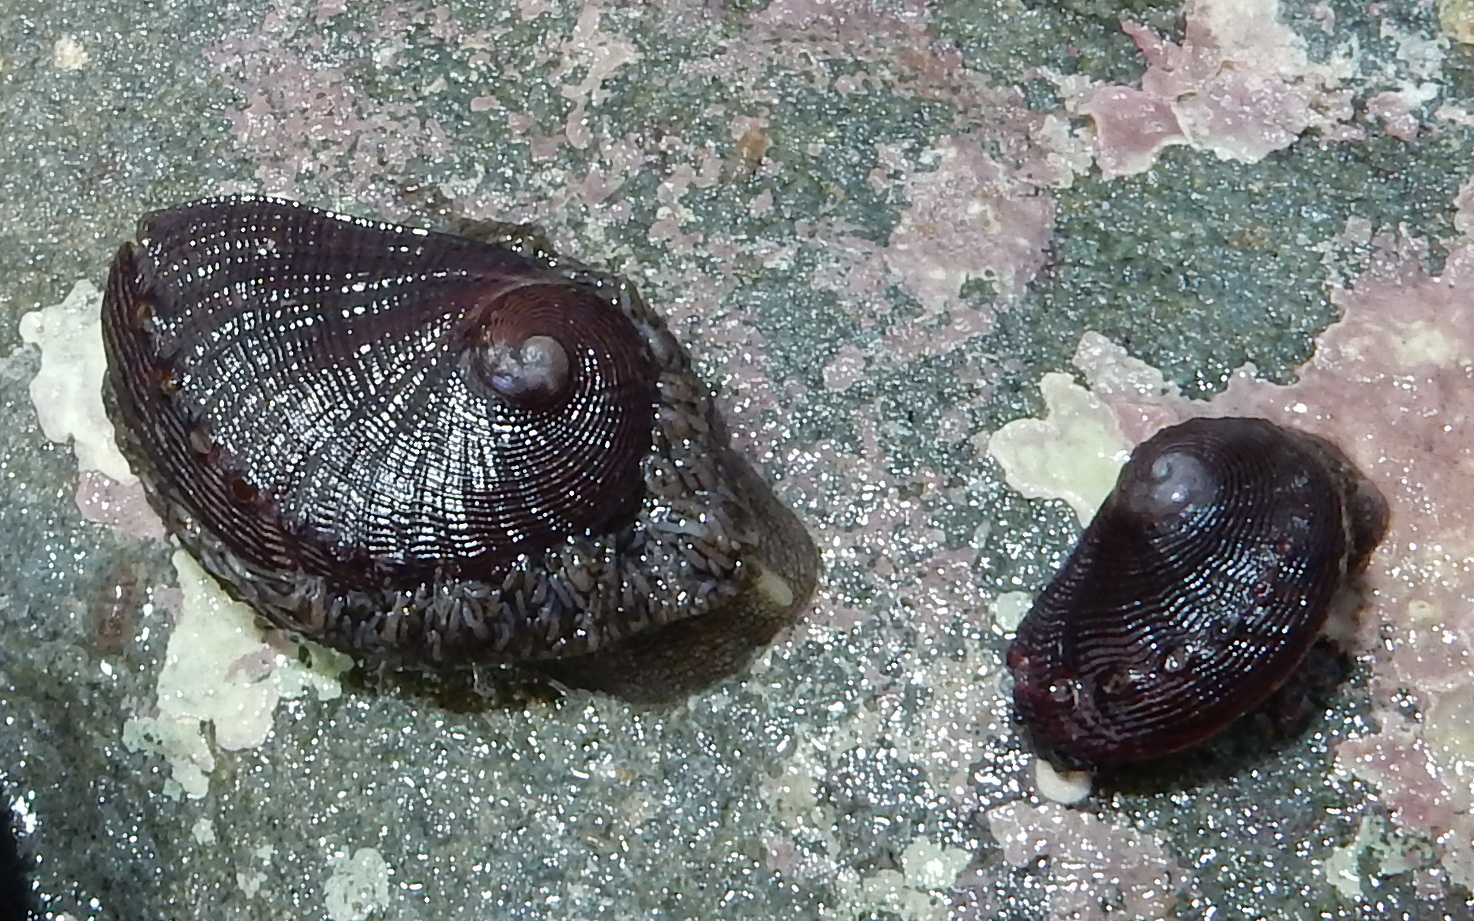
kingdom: Animalia
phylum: Mollusca
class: Gastropoda
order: Lepetellida
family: Haliotidae
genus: Haliotis
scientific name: Haliotis spadicea
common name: Siffie
